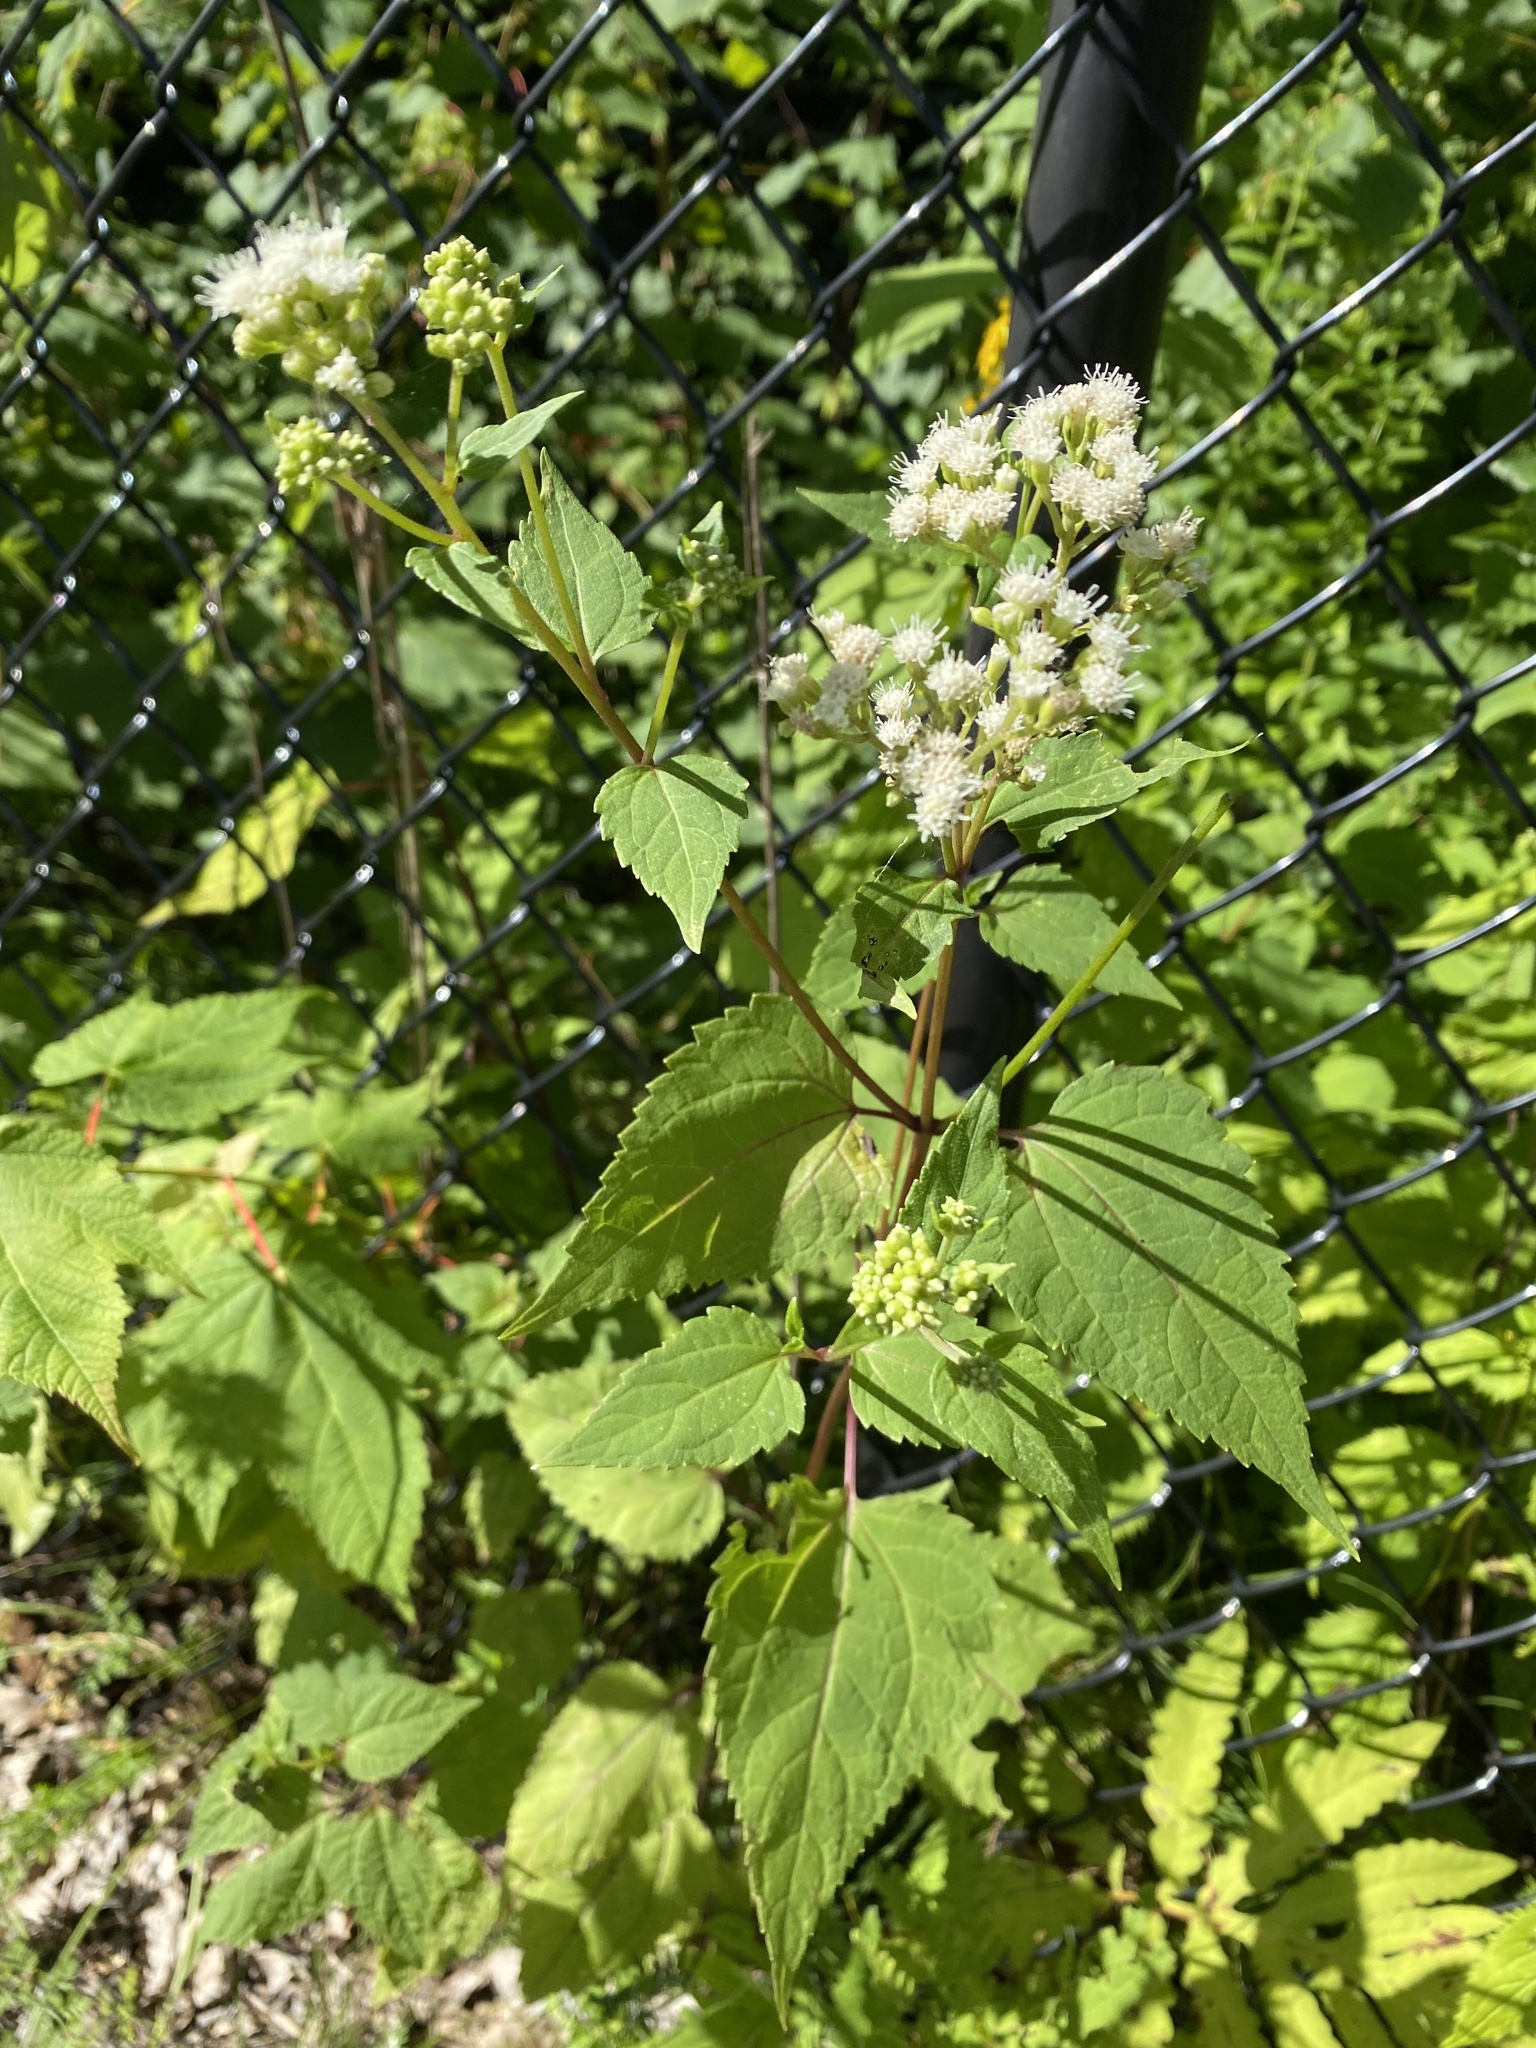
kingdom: Plantae
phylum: Tracheophyta
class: Magnoliopsida
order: Asterales
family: Asteraceae
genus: Ageratina
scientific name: Ageratina altissima
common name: White snakeroot
